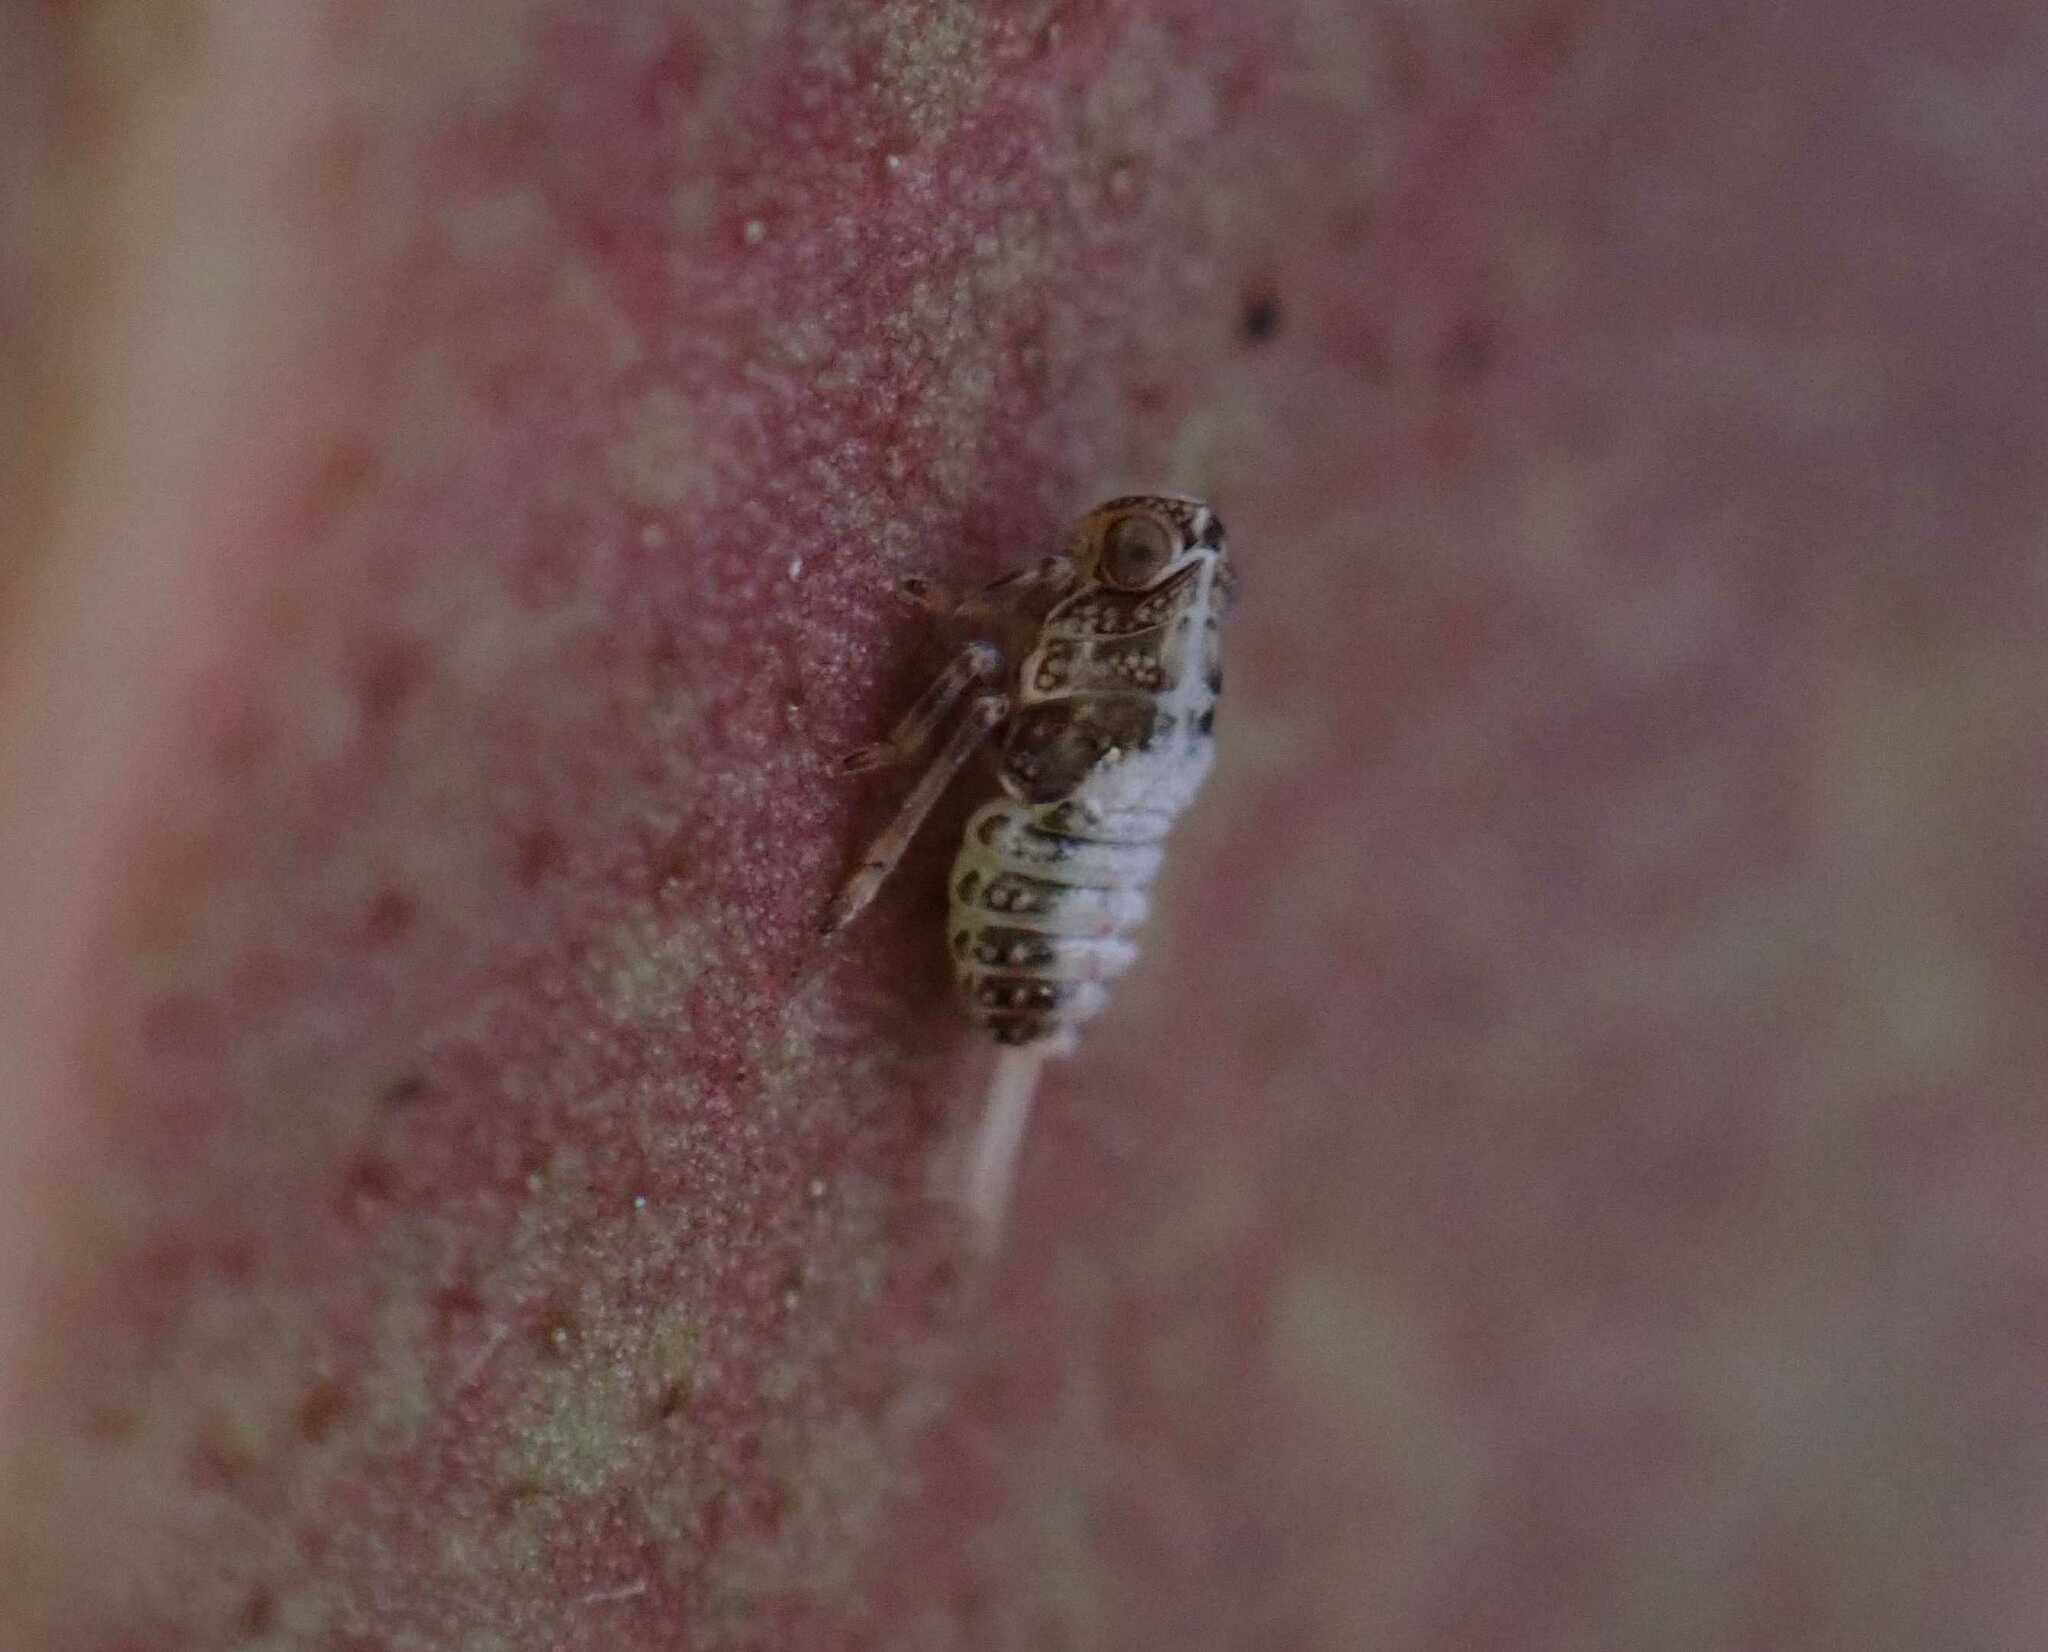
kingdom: Animalia
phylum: Arthropoda
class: Insecta
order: Hemiptera
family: Issidae
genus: Issus
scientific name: Issus
